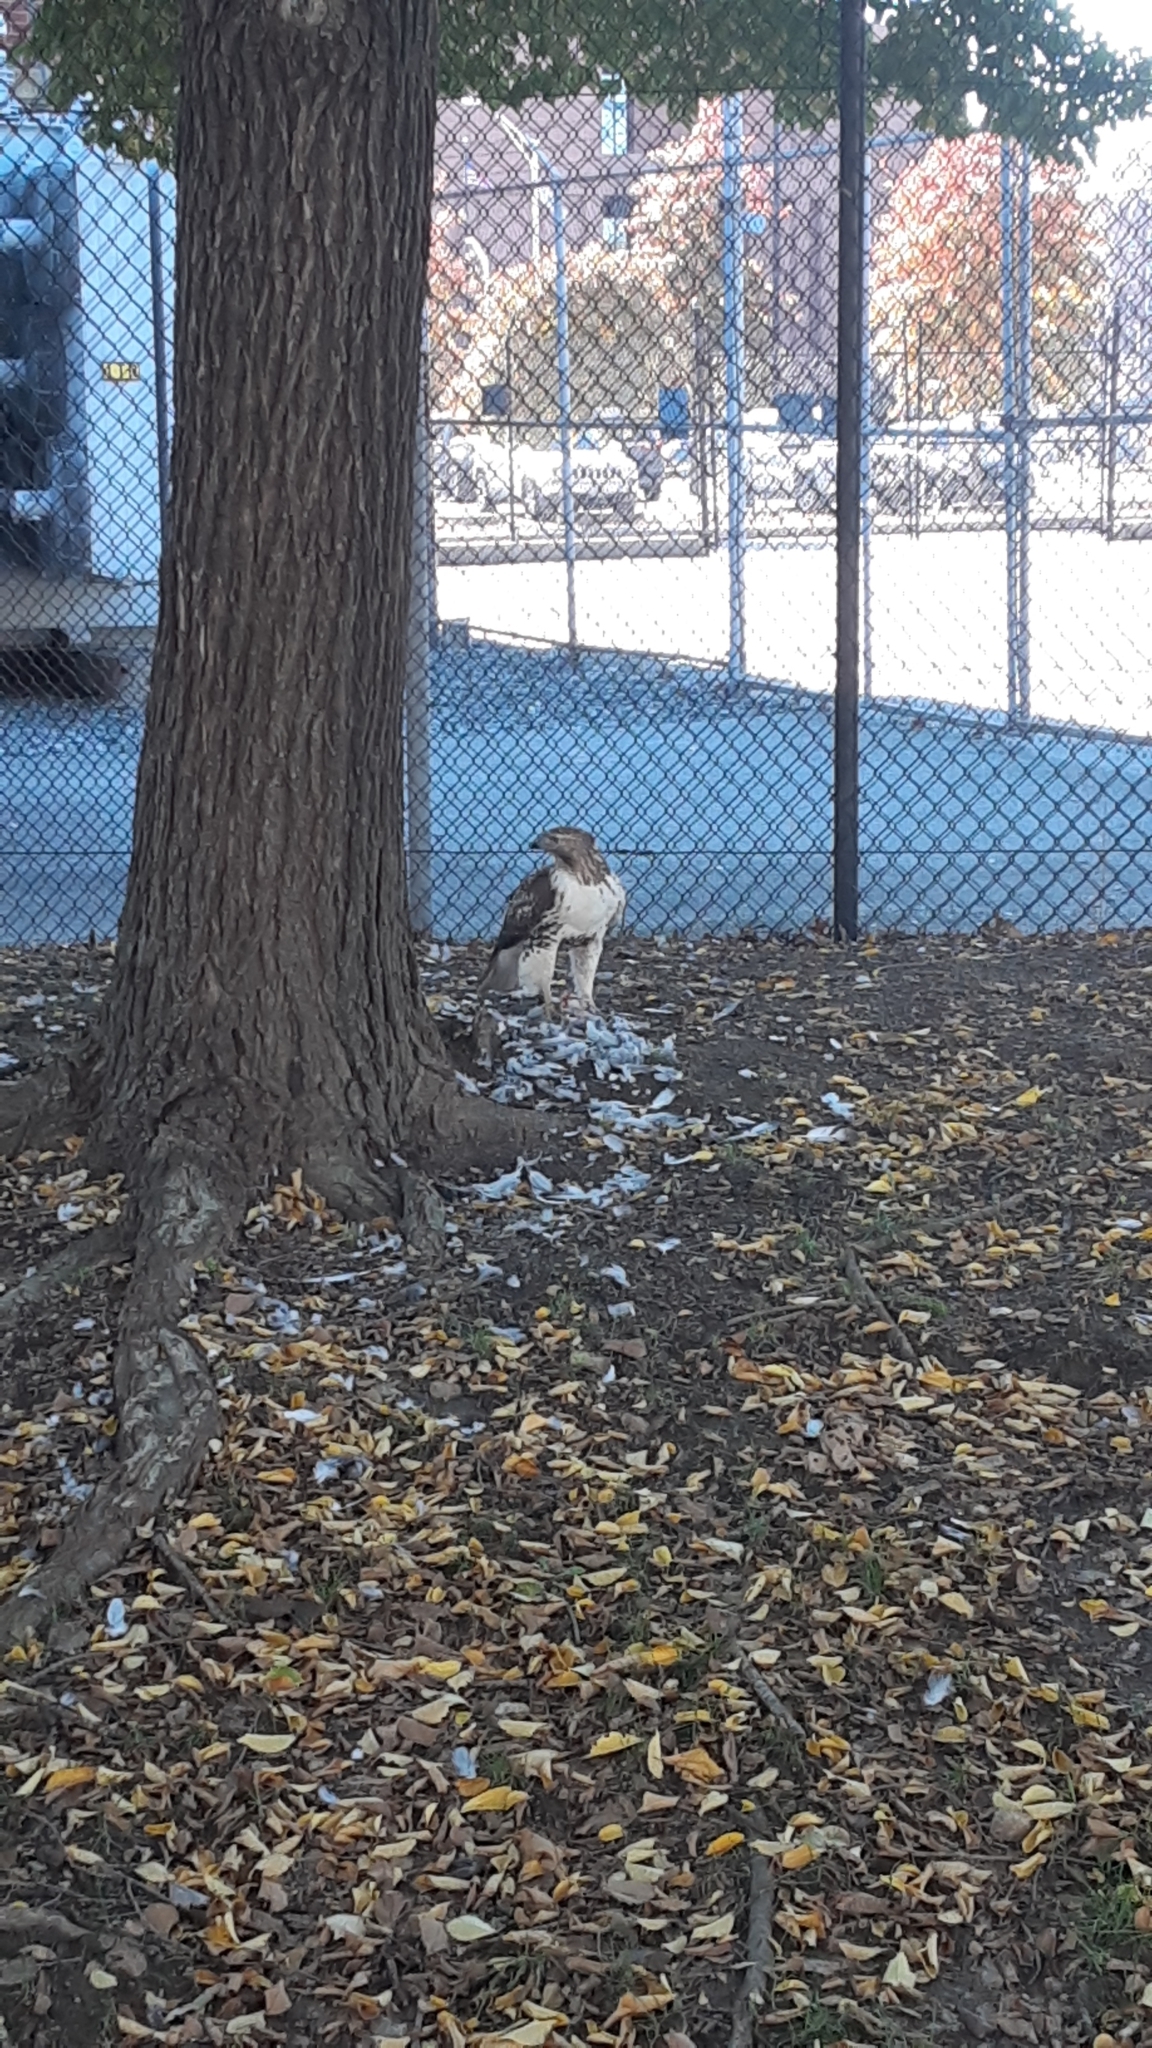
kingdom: Animalia
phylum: Chordata
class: Aves
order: Accipitriformes
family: Accipitridae
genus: Buteo
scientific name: Buteo jamaicensis
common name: Red-tailed hawk
